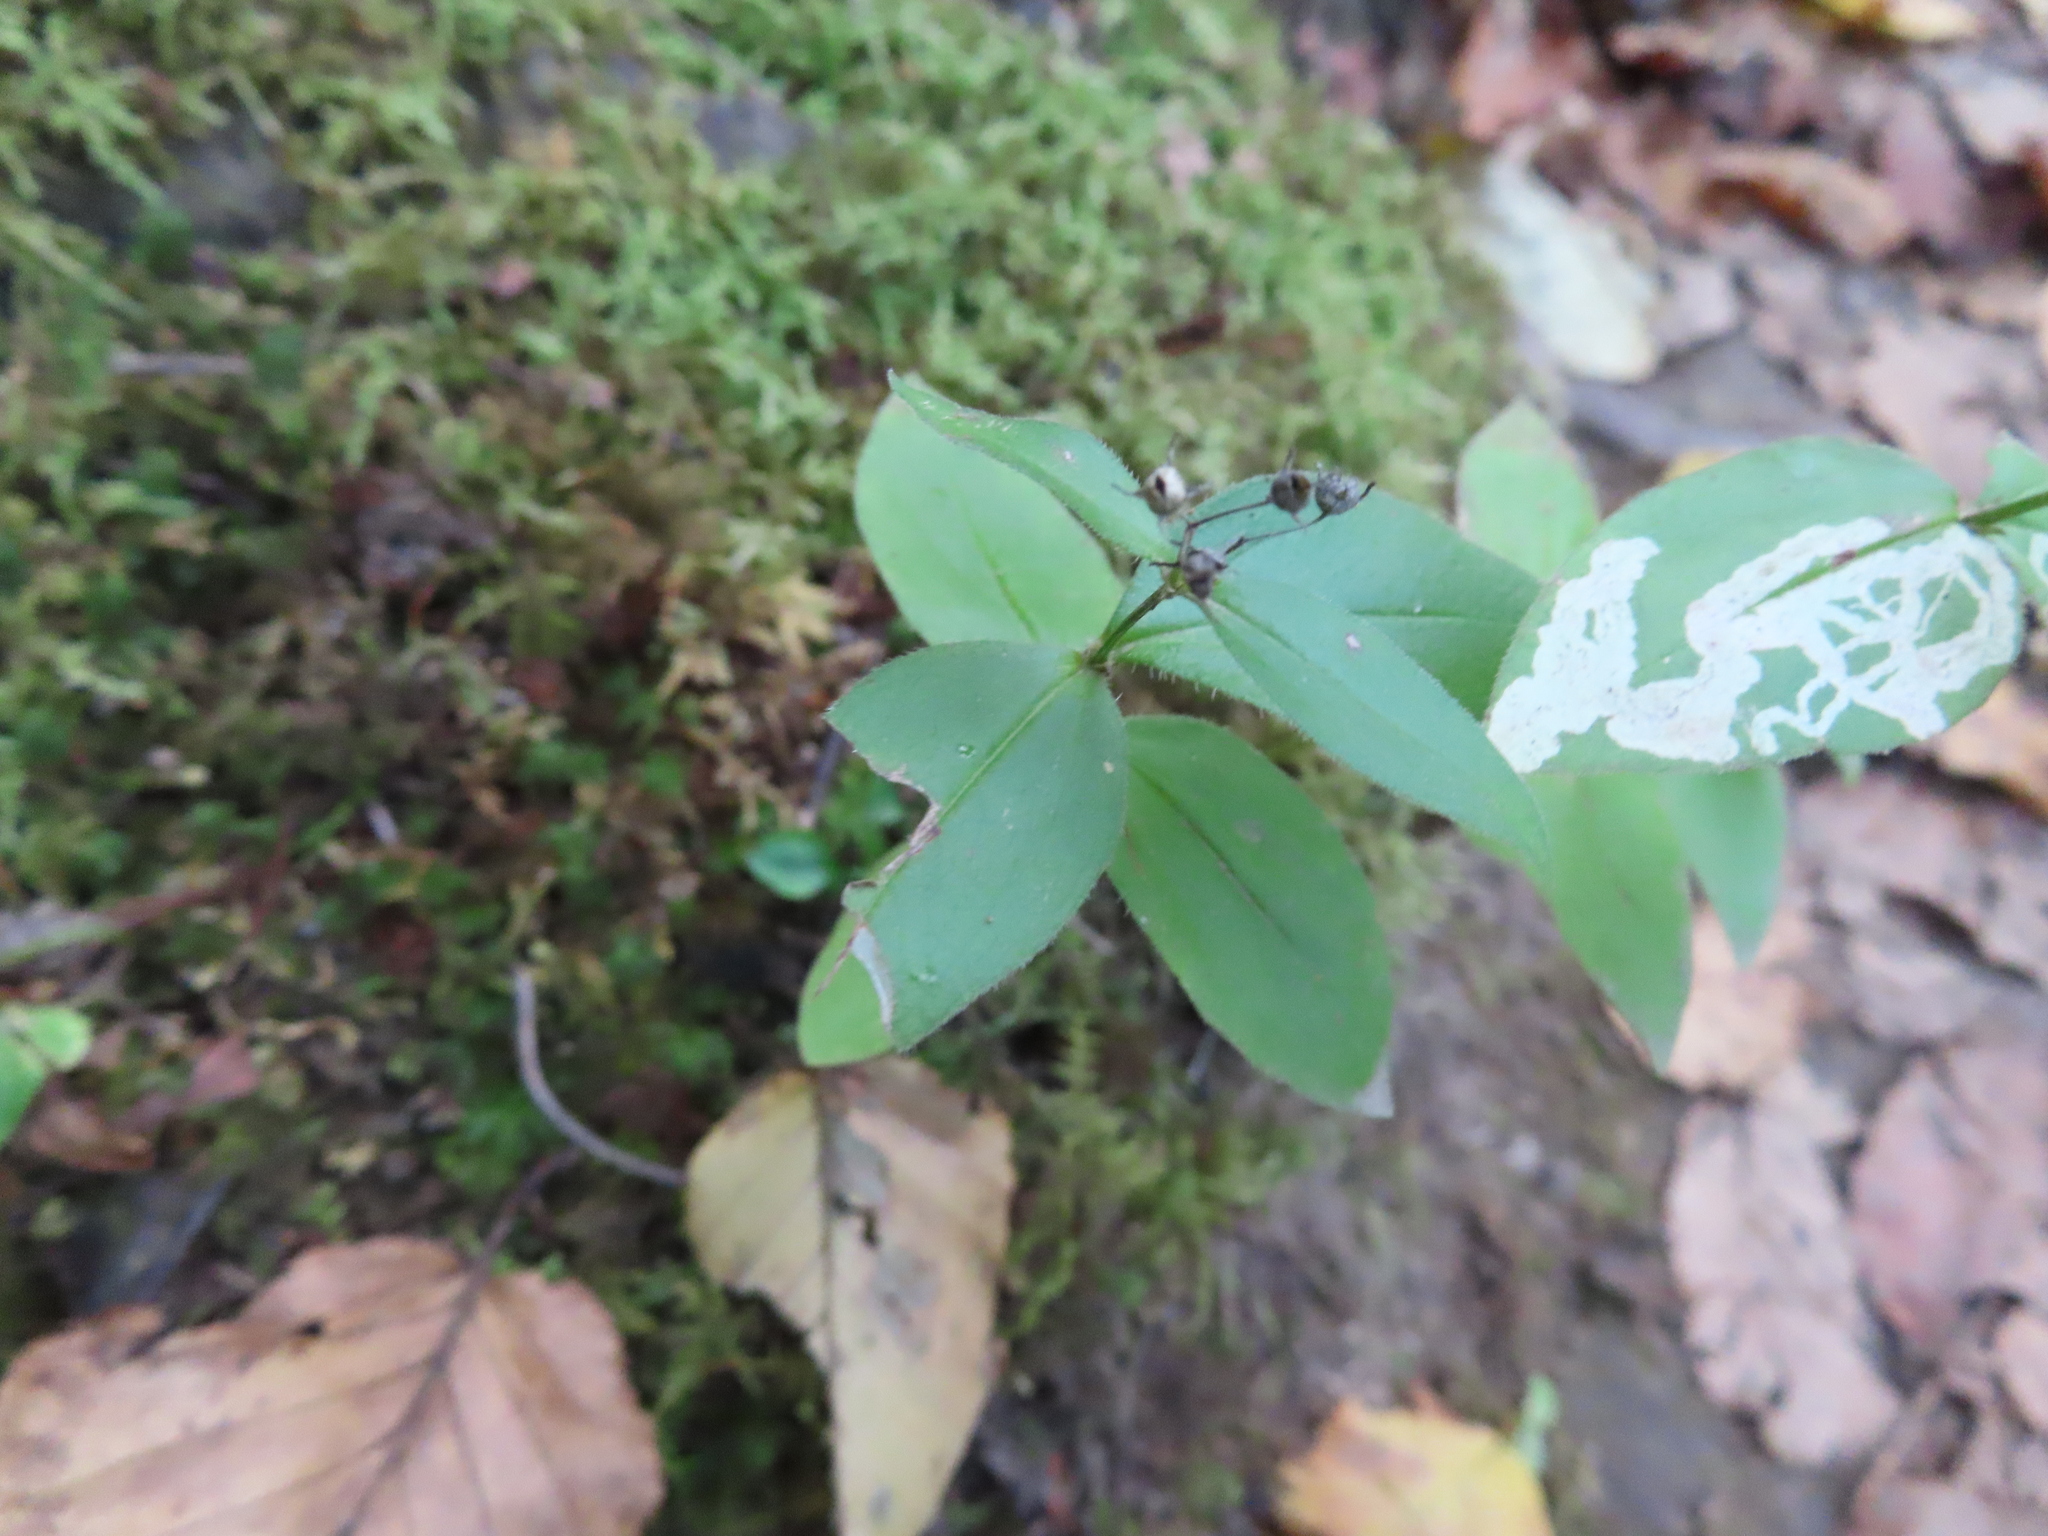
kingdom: Plantae
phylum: Tracheophyta
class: Magnoliopsida
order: Gentianales
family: Rubiaceae
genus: Houstonia
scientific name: Houstonia purpurea
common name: Summer bluet
